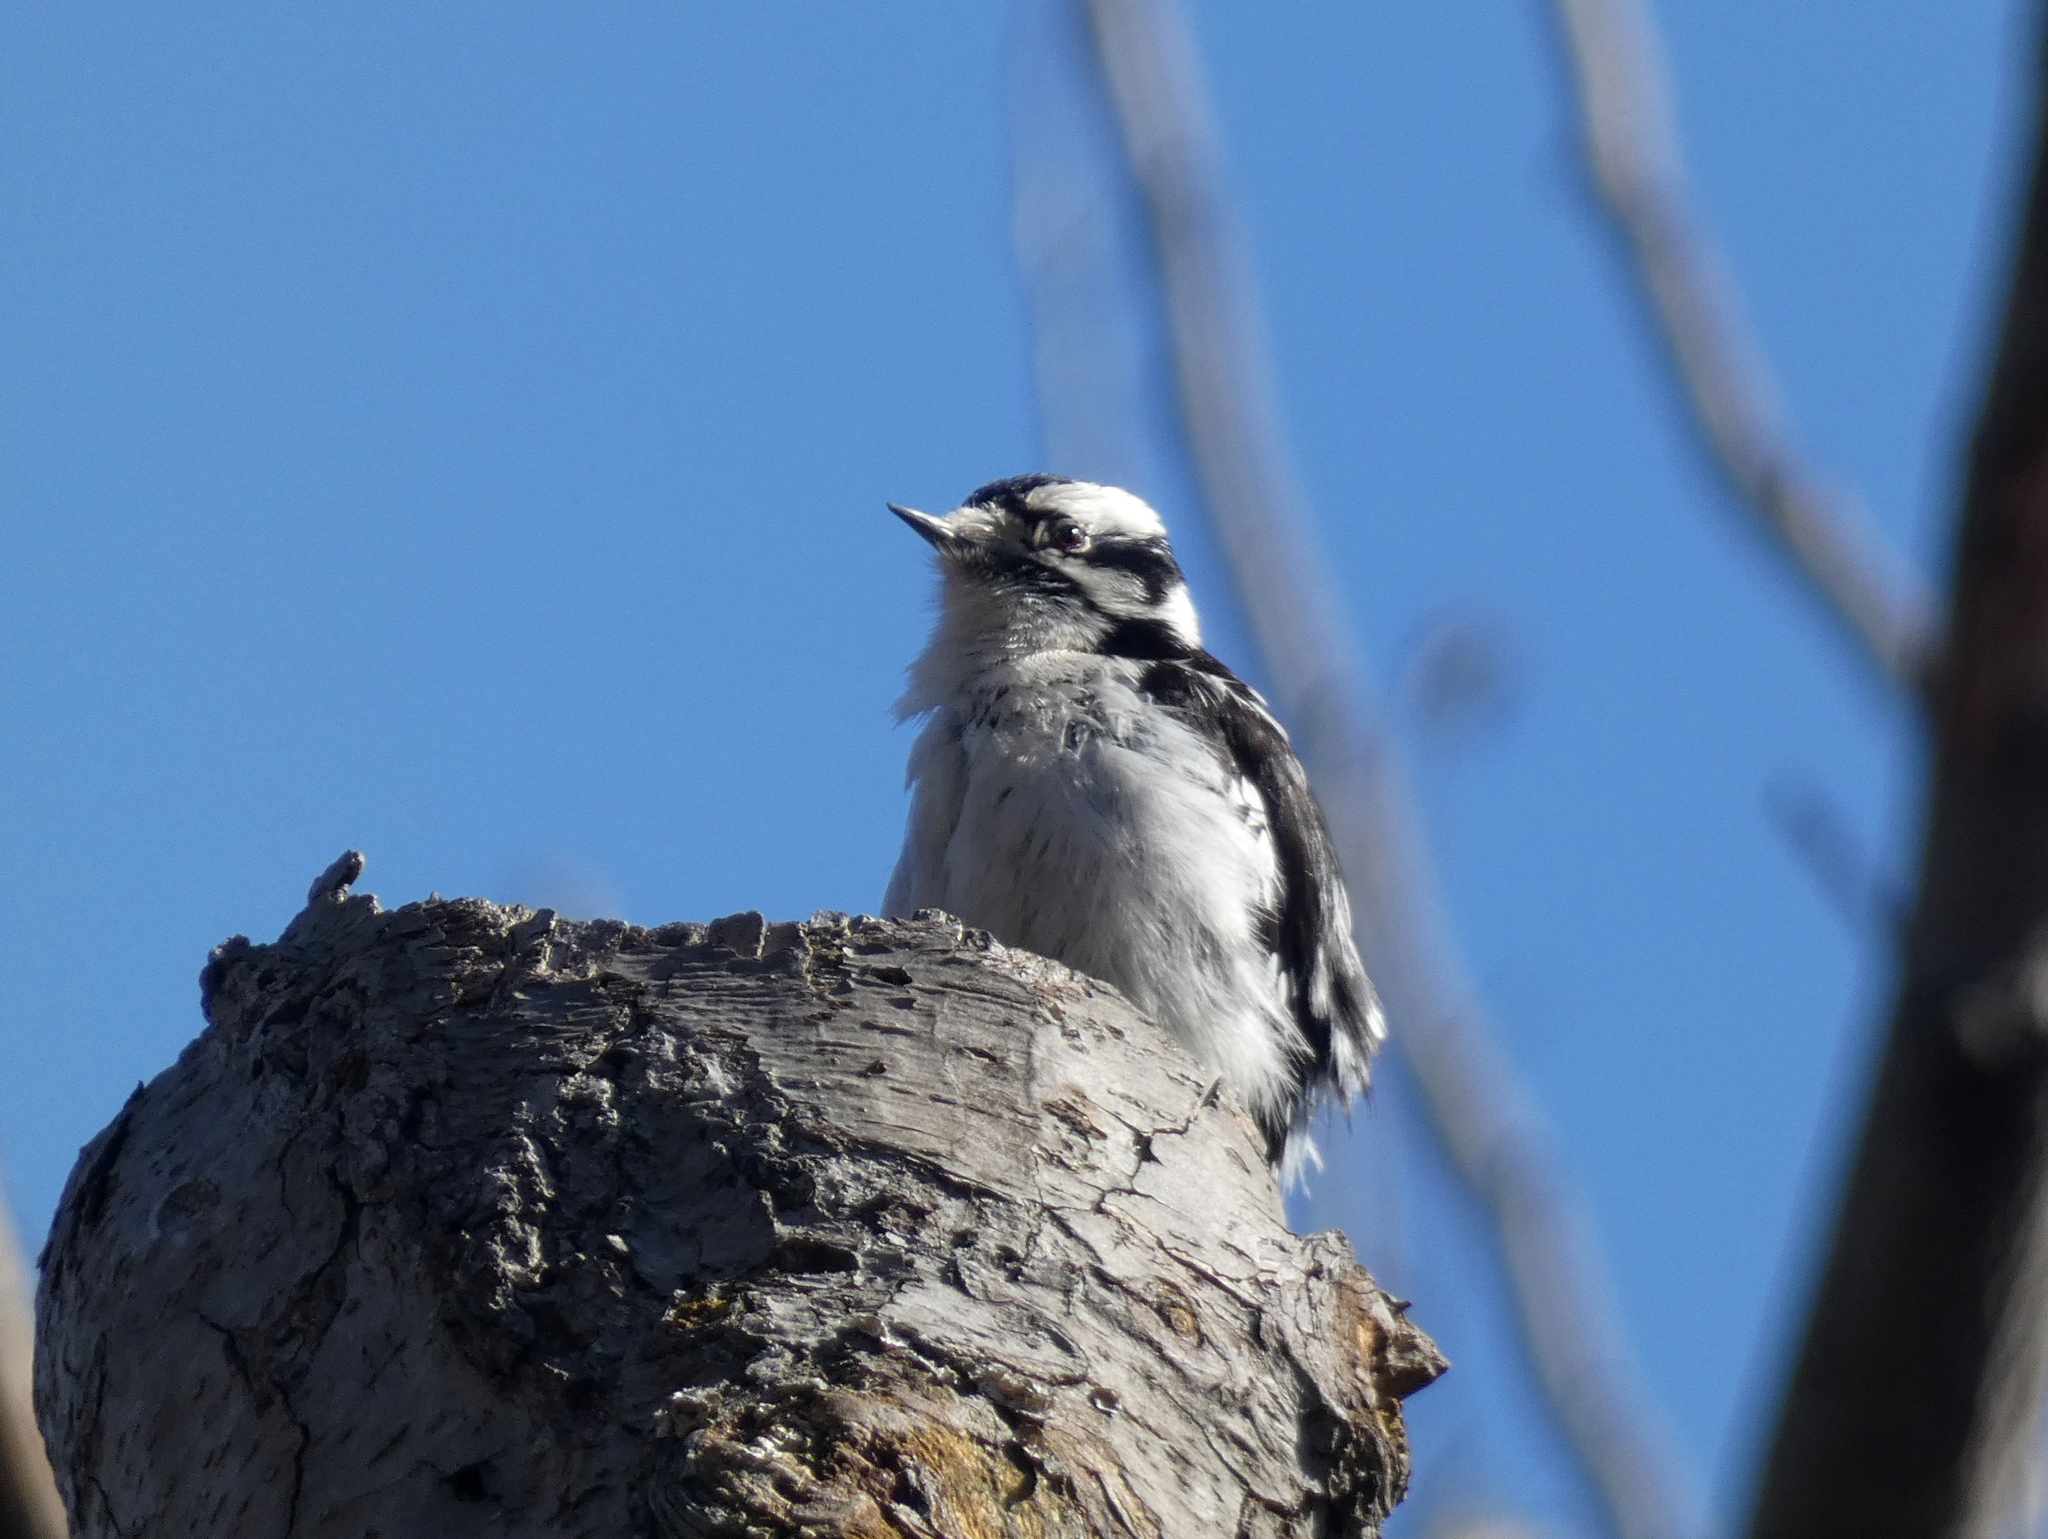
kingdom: Animalia
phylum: Chordata
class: Aves
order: Piciformes
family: Picidae
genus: Dryobates
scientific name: Dryobates pubescens
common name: Downy woodpecker
